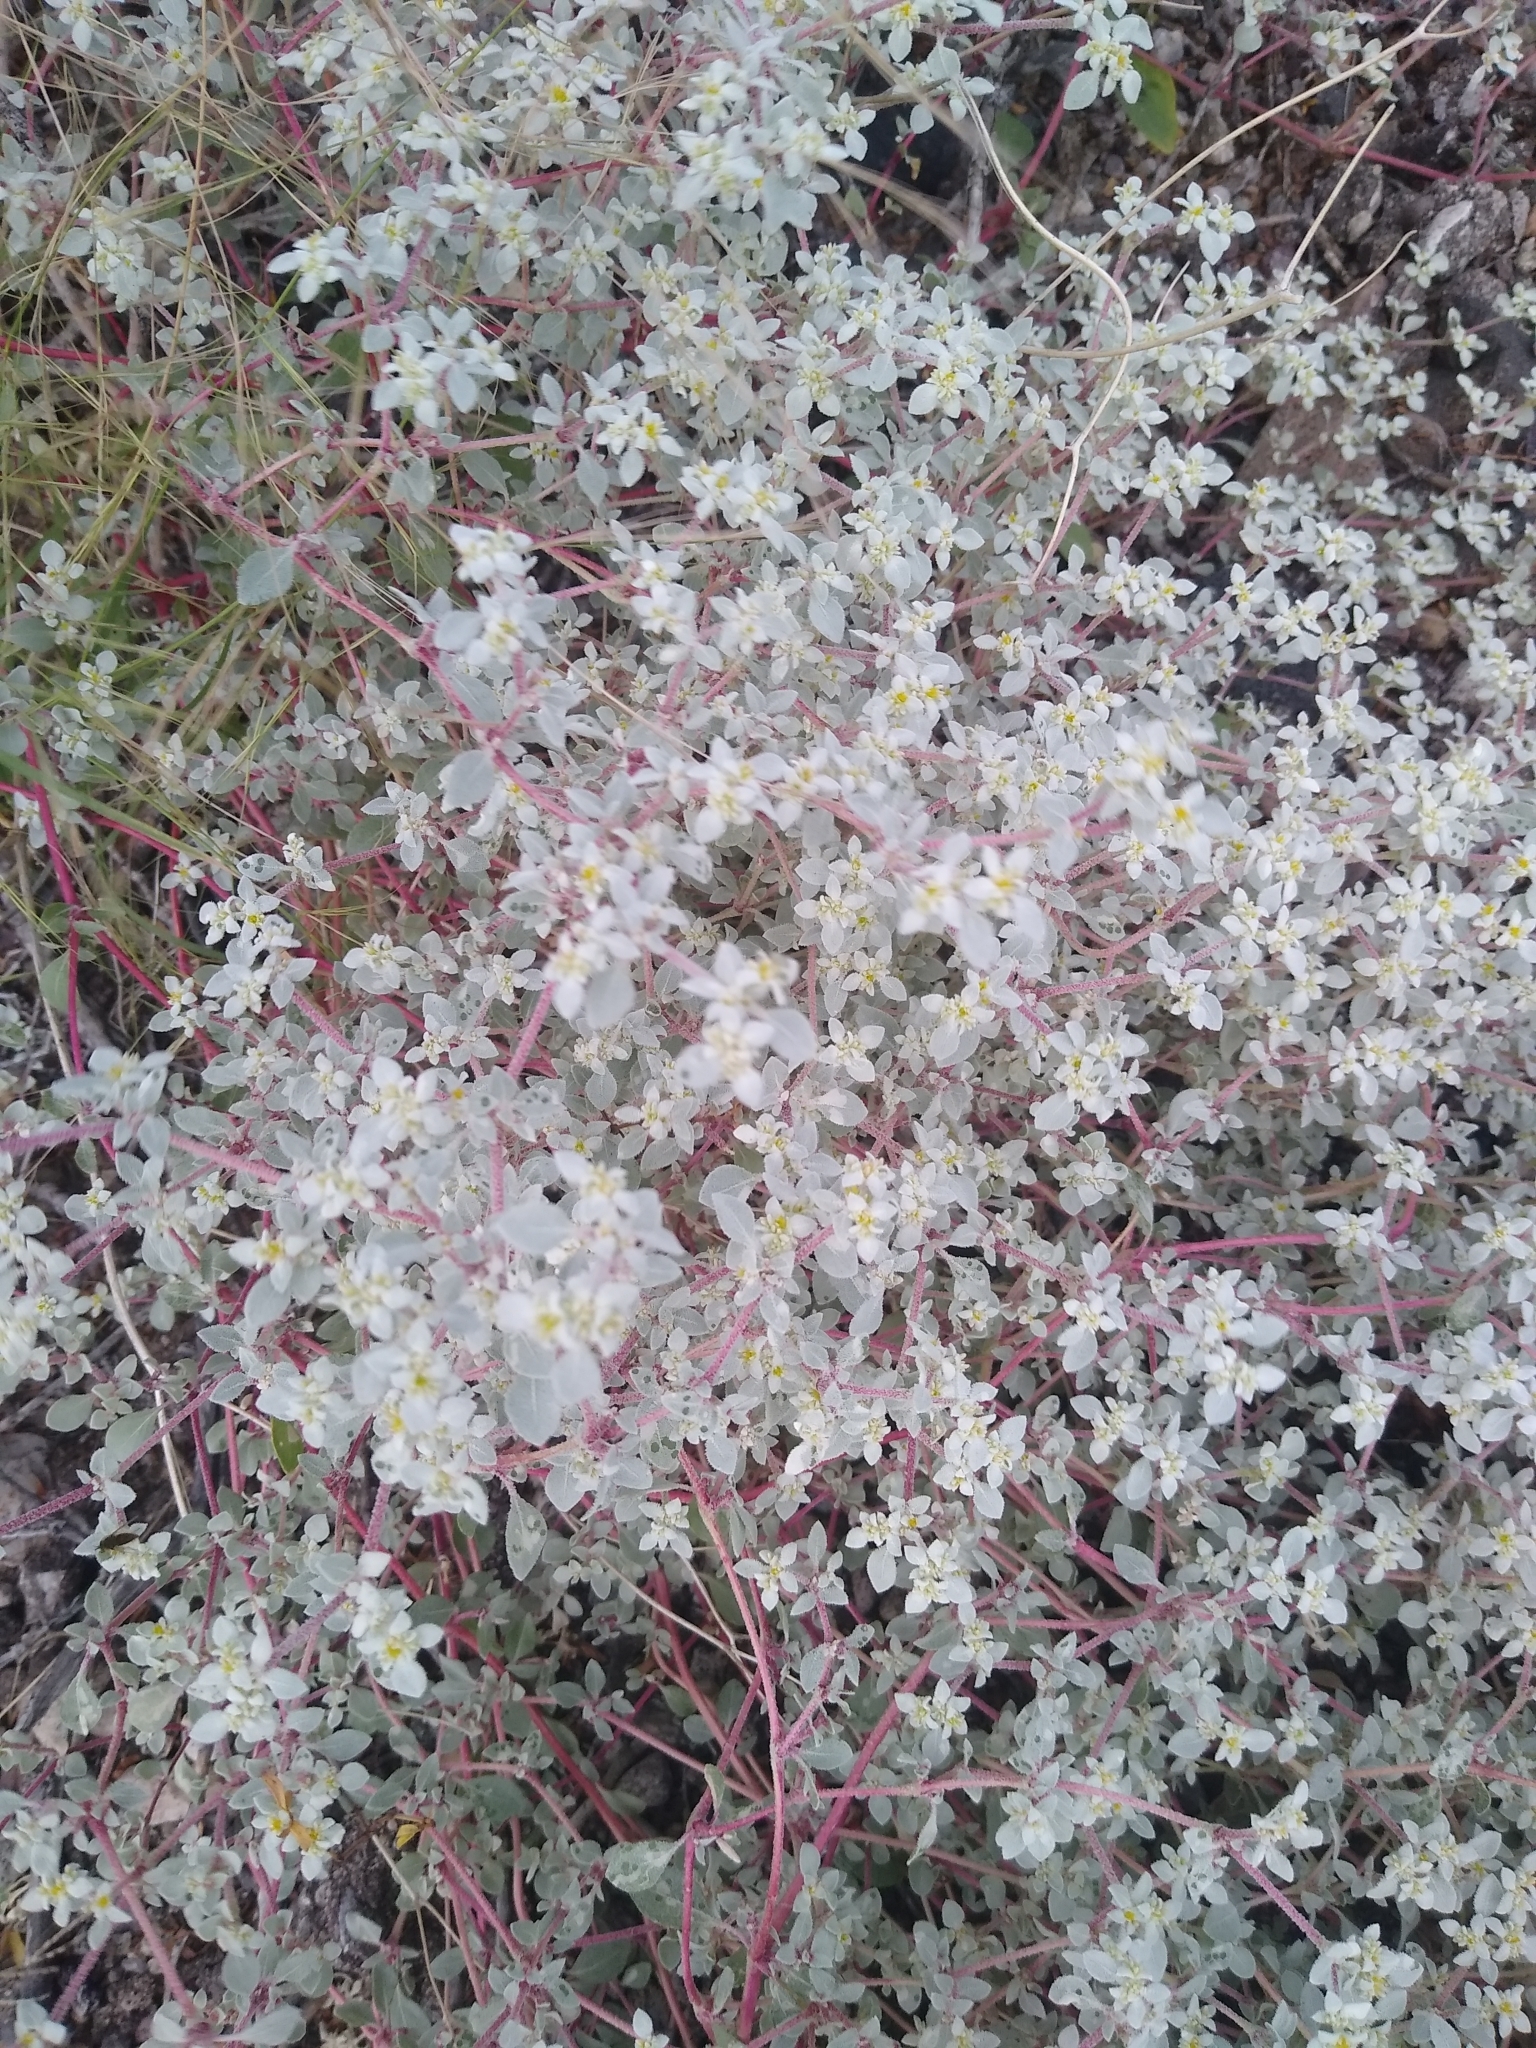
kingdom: Plantae
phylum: Tracheophyta
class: Magnoliopsida
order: Caryophyllales
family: Amaranthaceae
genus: Tidestromia
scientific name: Tidestromia lanuginosa
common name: Woolly tidestromia
